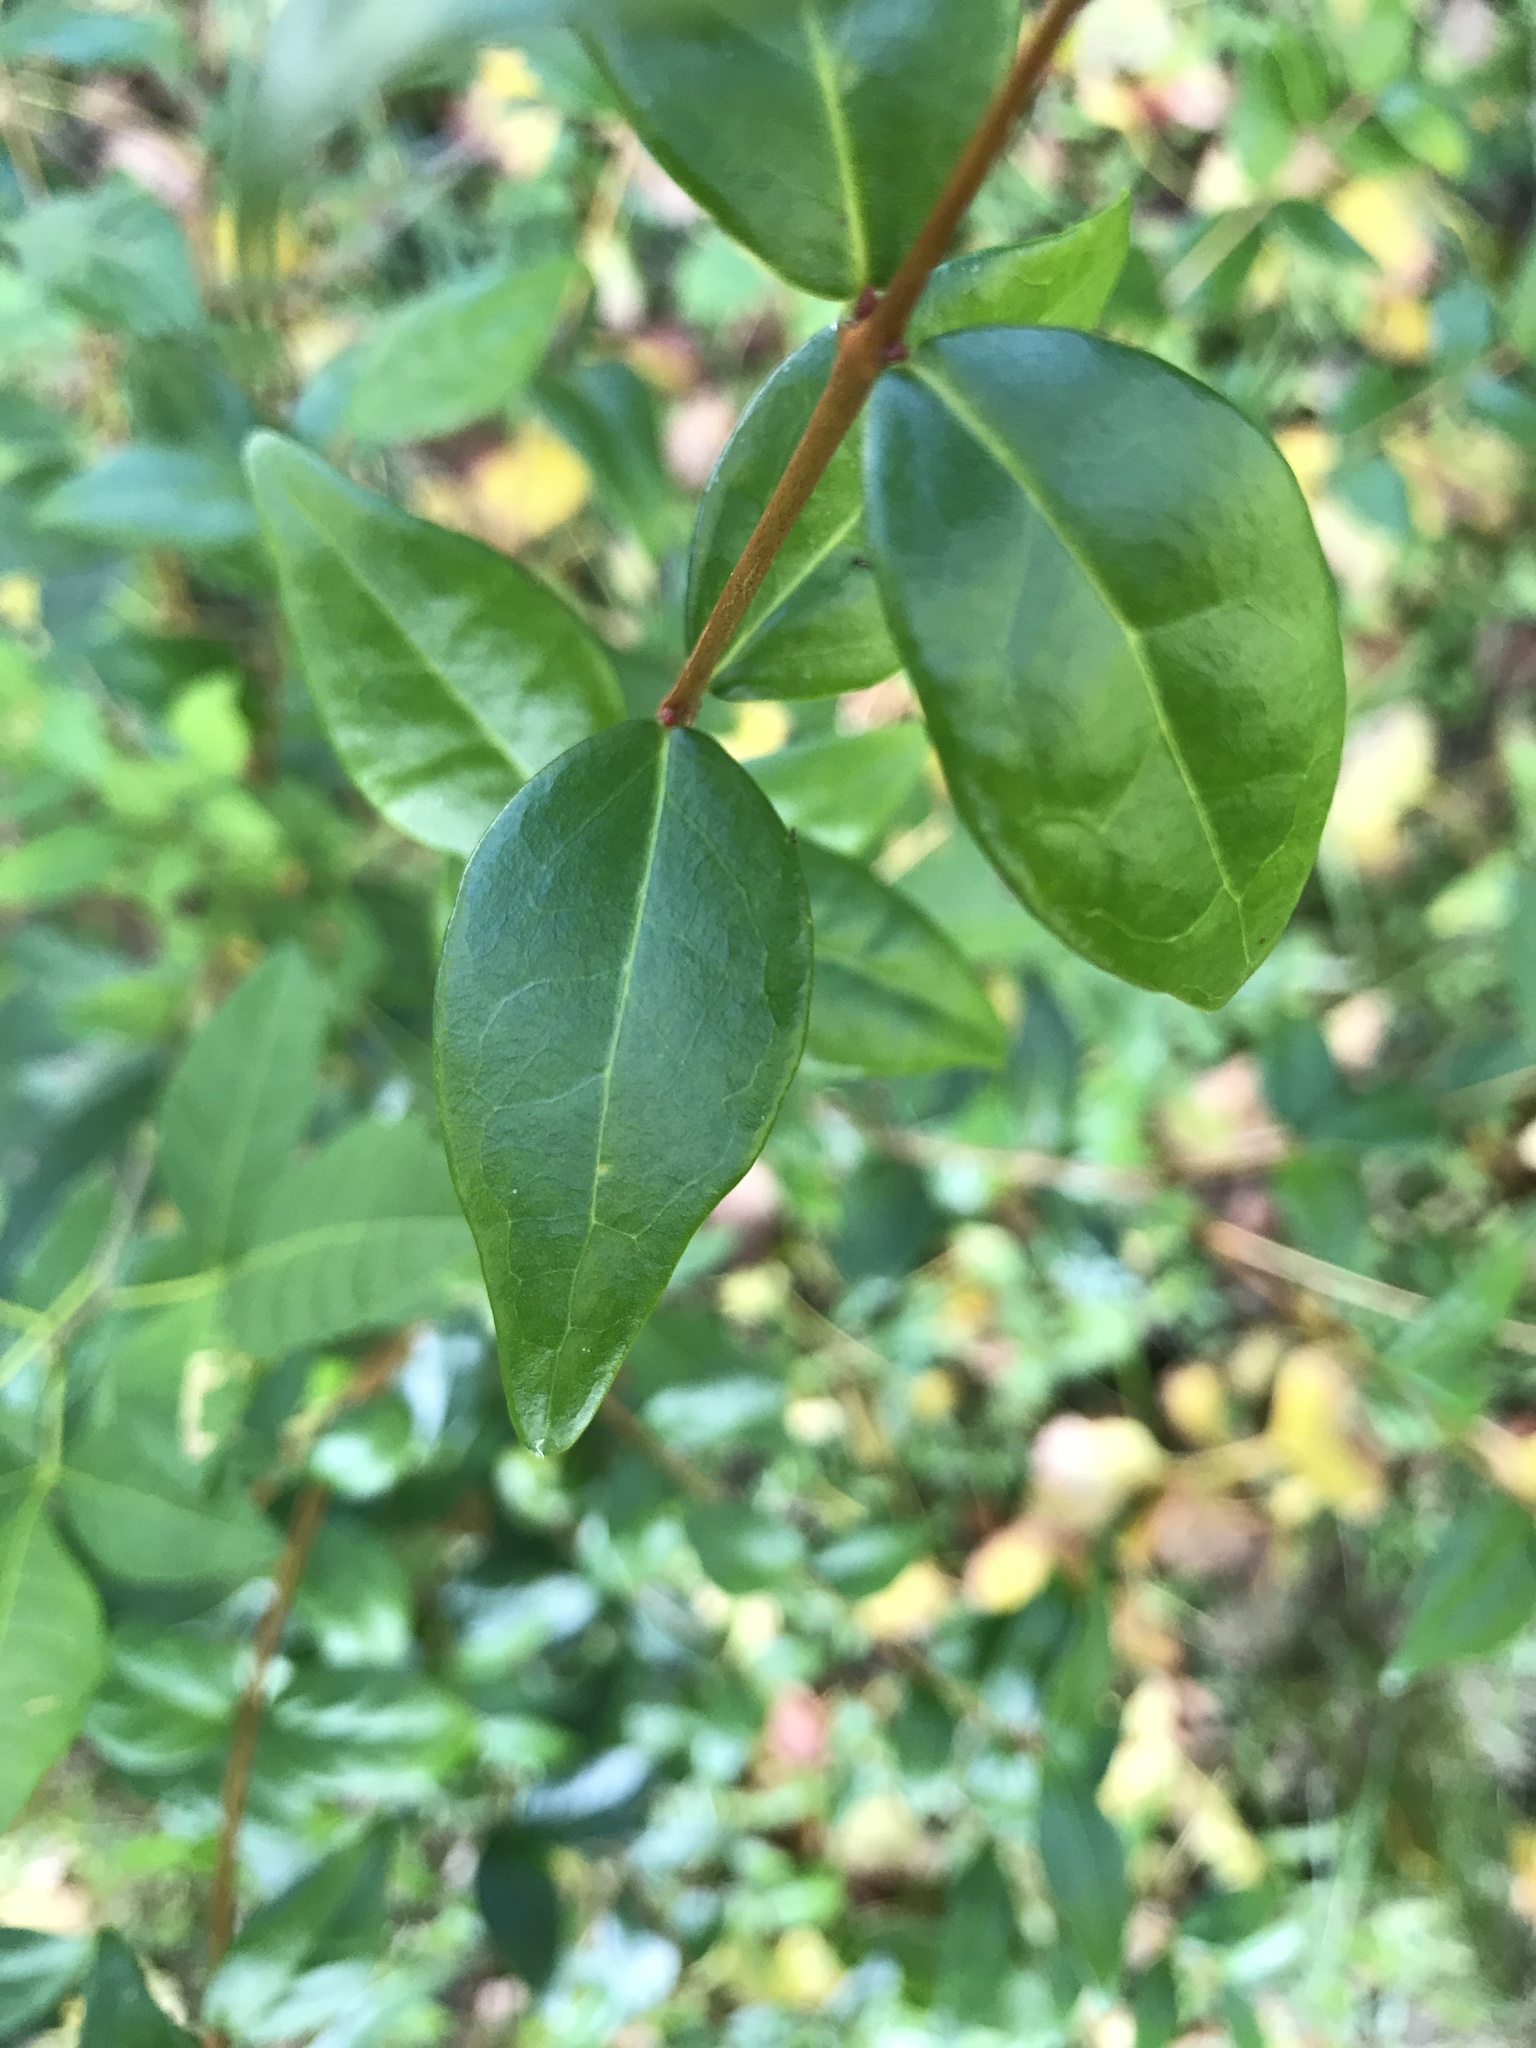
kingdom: Plantae
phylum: Tracheophyta
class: Magnoliopsida
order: Myrtales
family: Myrtaceae
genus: Eugenia
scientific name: Eugenia uniflora
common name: Surinam cherry
